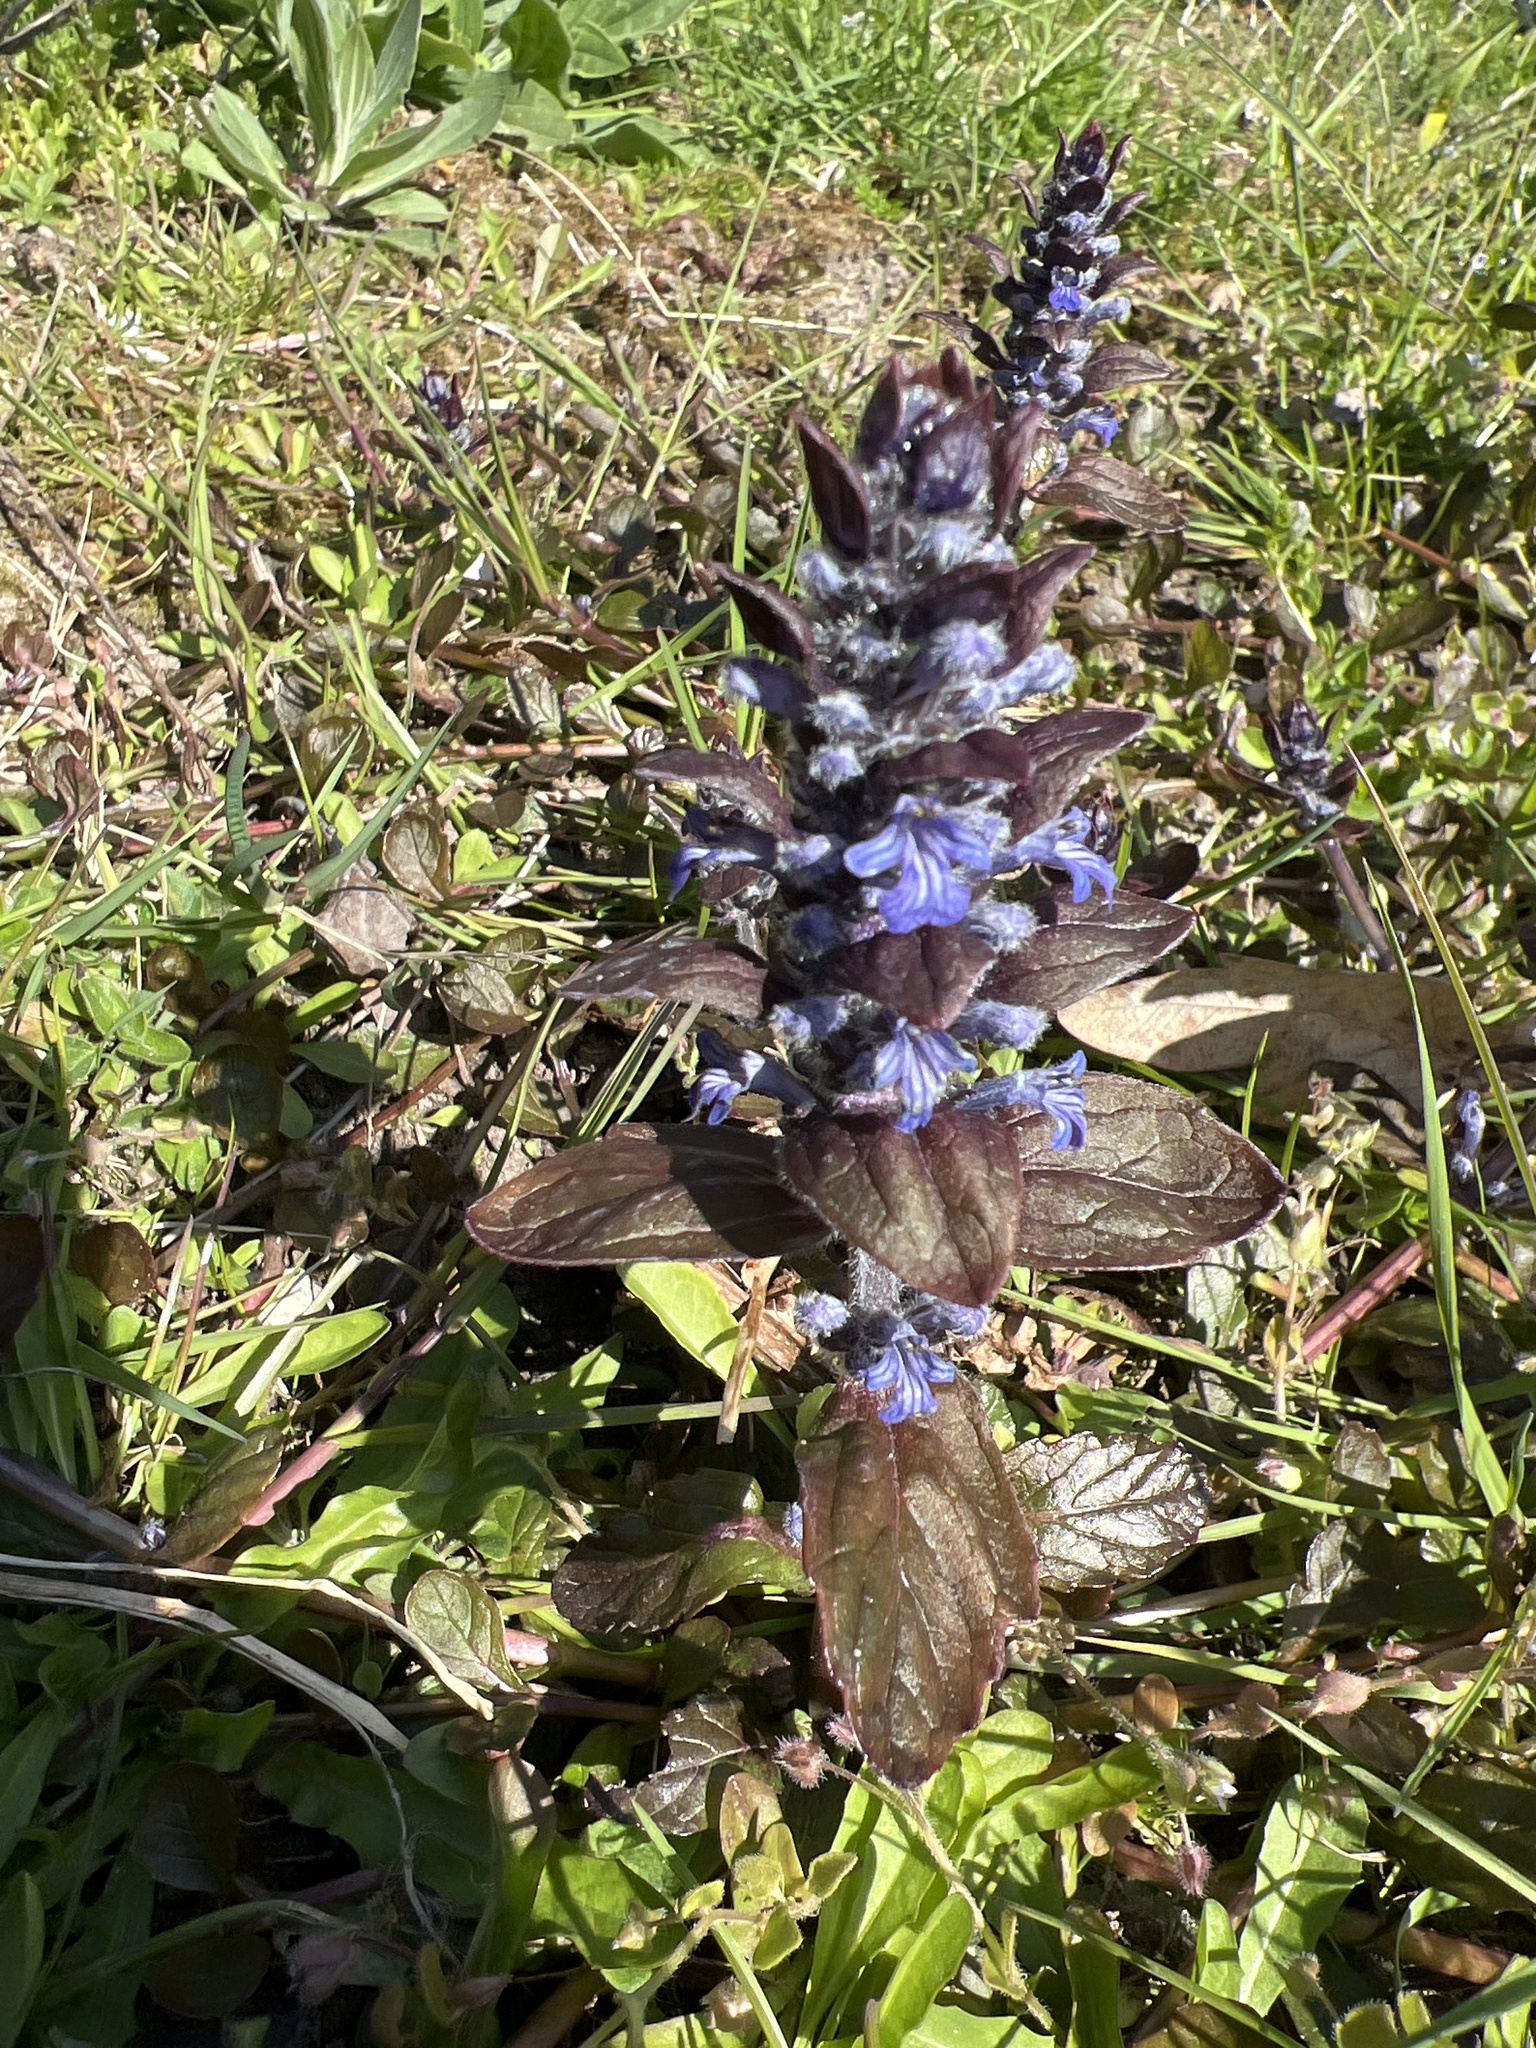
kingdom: Plantae
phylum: Tracheophyta
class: Magnoliopsida
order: Lamiales
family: Lamiaceae
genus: Ajuga
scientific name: Ajuga reptans
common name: Bugle
